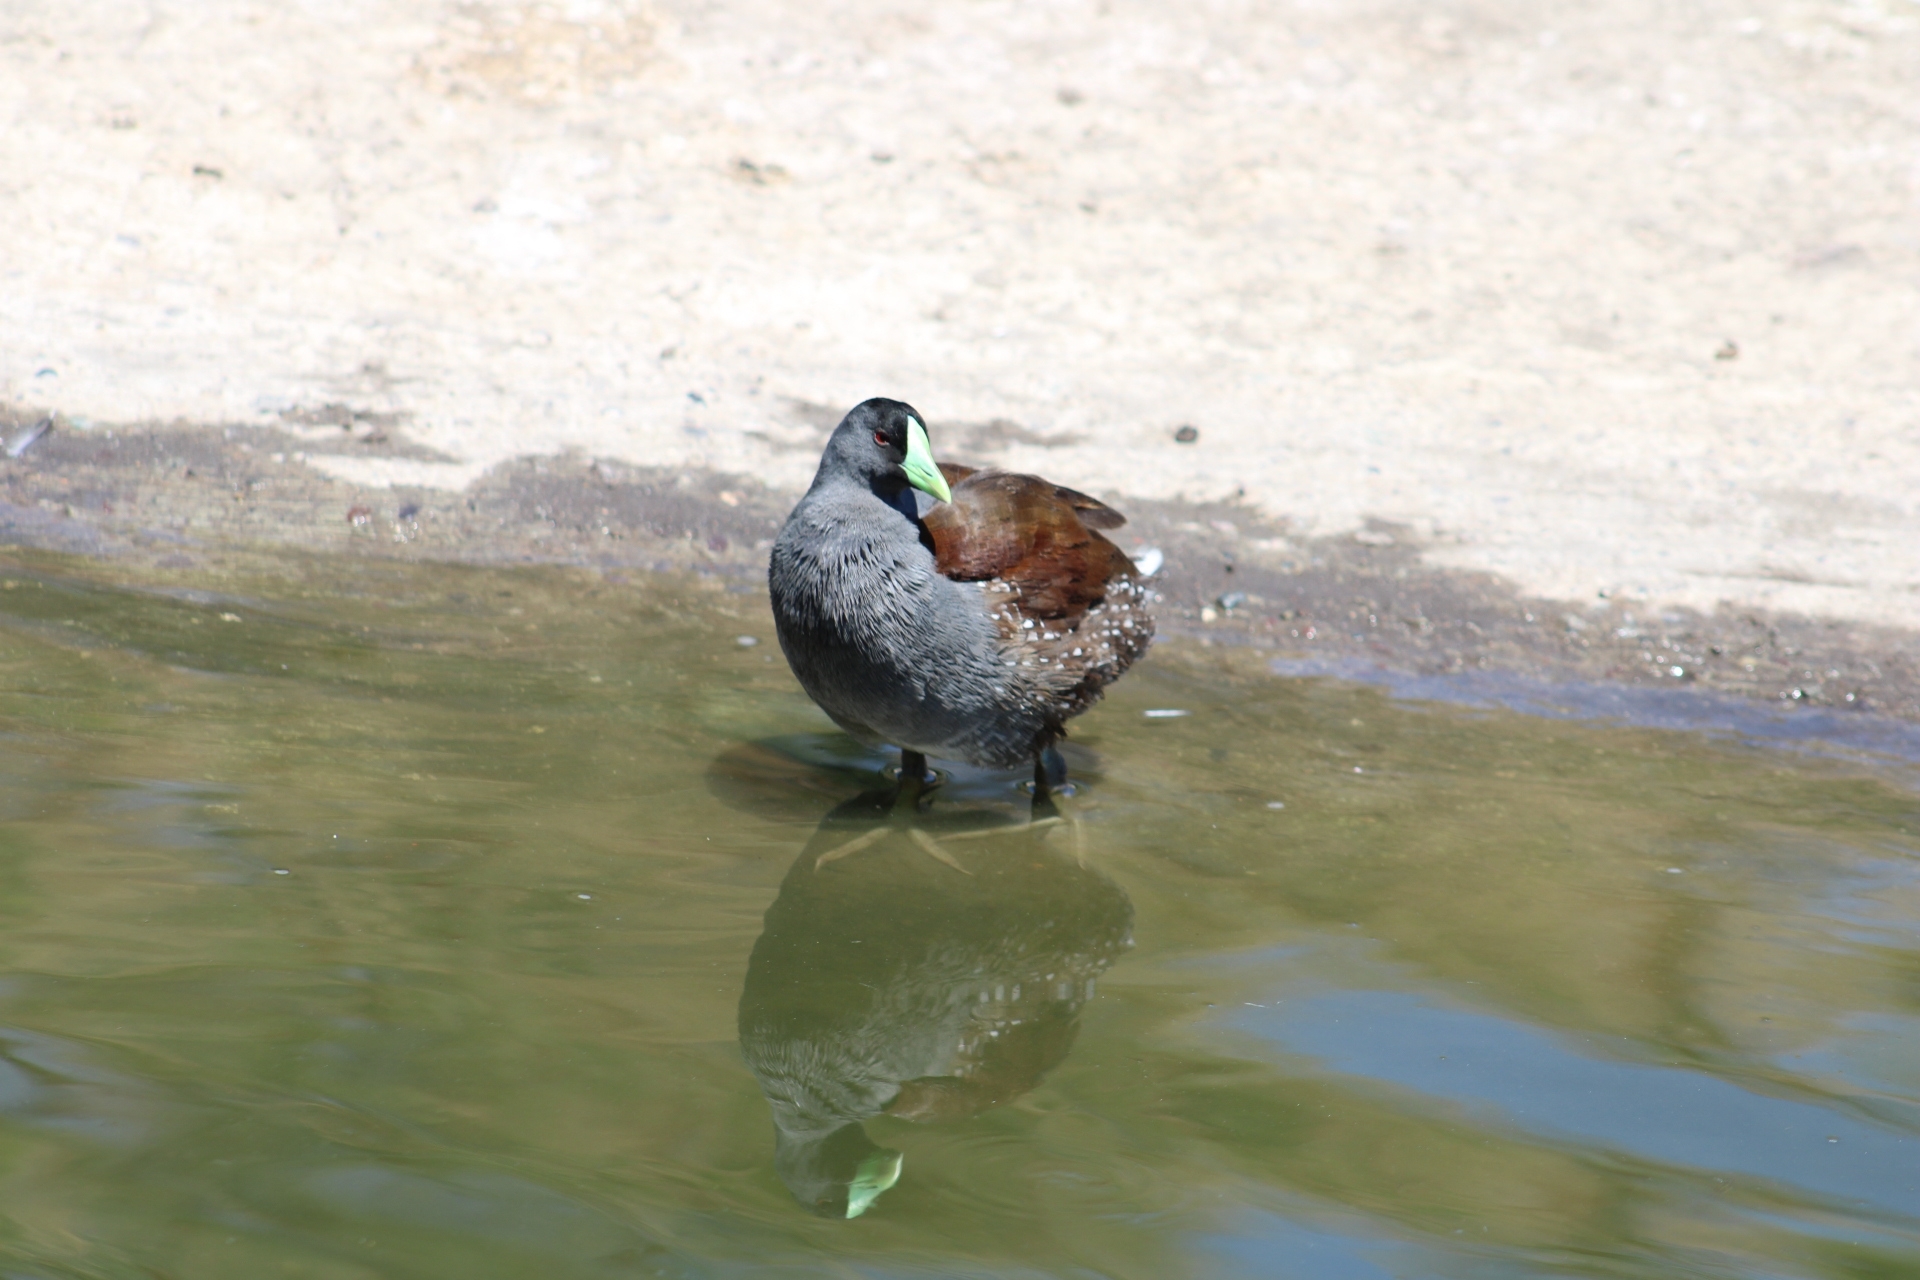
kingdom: Animalia
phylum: Chordata
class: Aves
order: Gruiformes
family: Rallidae
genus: Gallinula
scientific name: Gallinula melanops
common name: Spot-flanked gallinule
